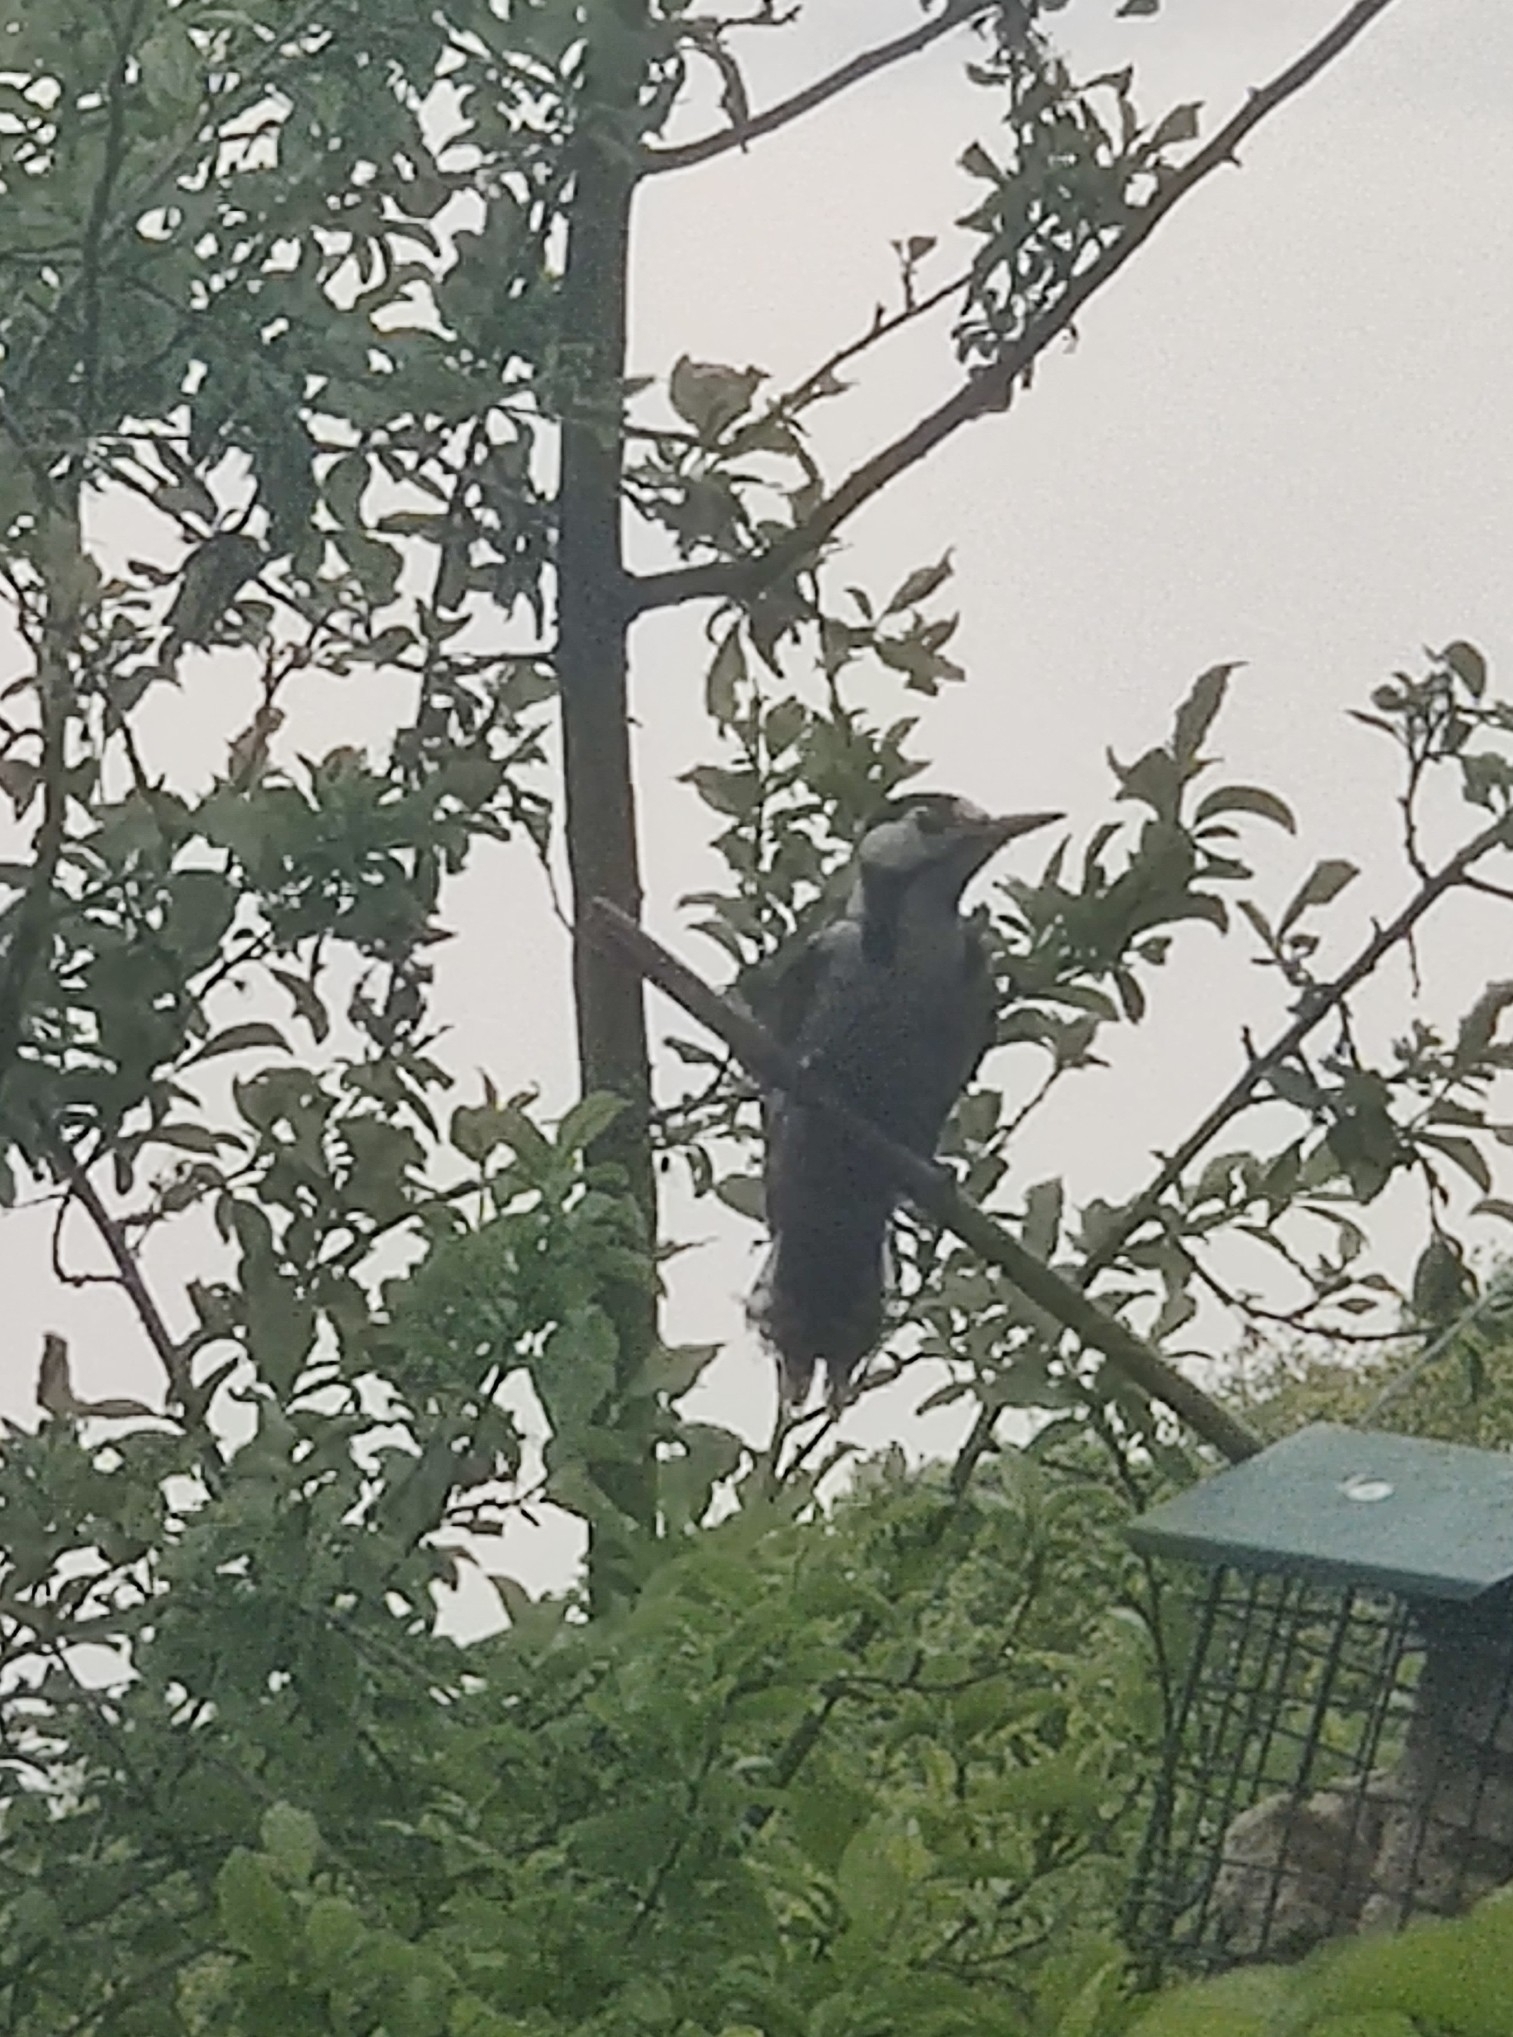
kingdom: Animalia
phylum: Chordata
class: Aves
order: Piciformes
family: Picidae
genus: Dendrocopos
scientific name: Dendrocopos major
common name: Great spotted woodpecker
